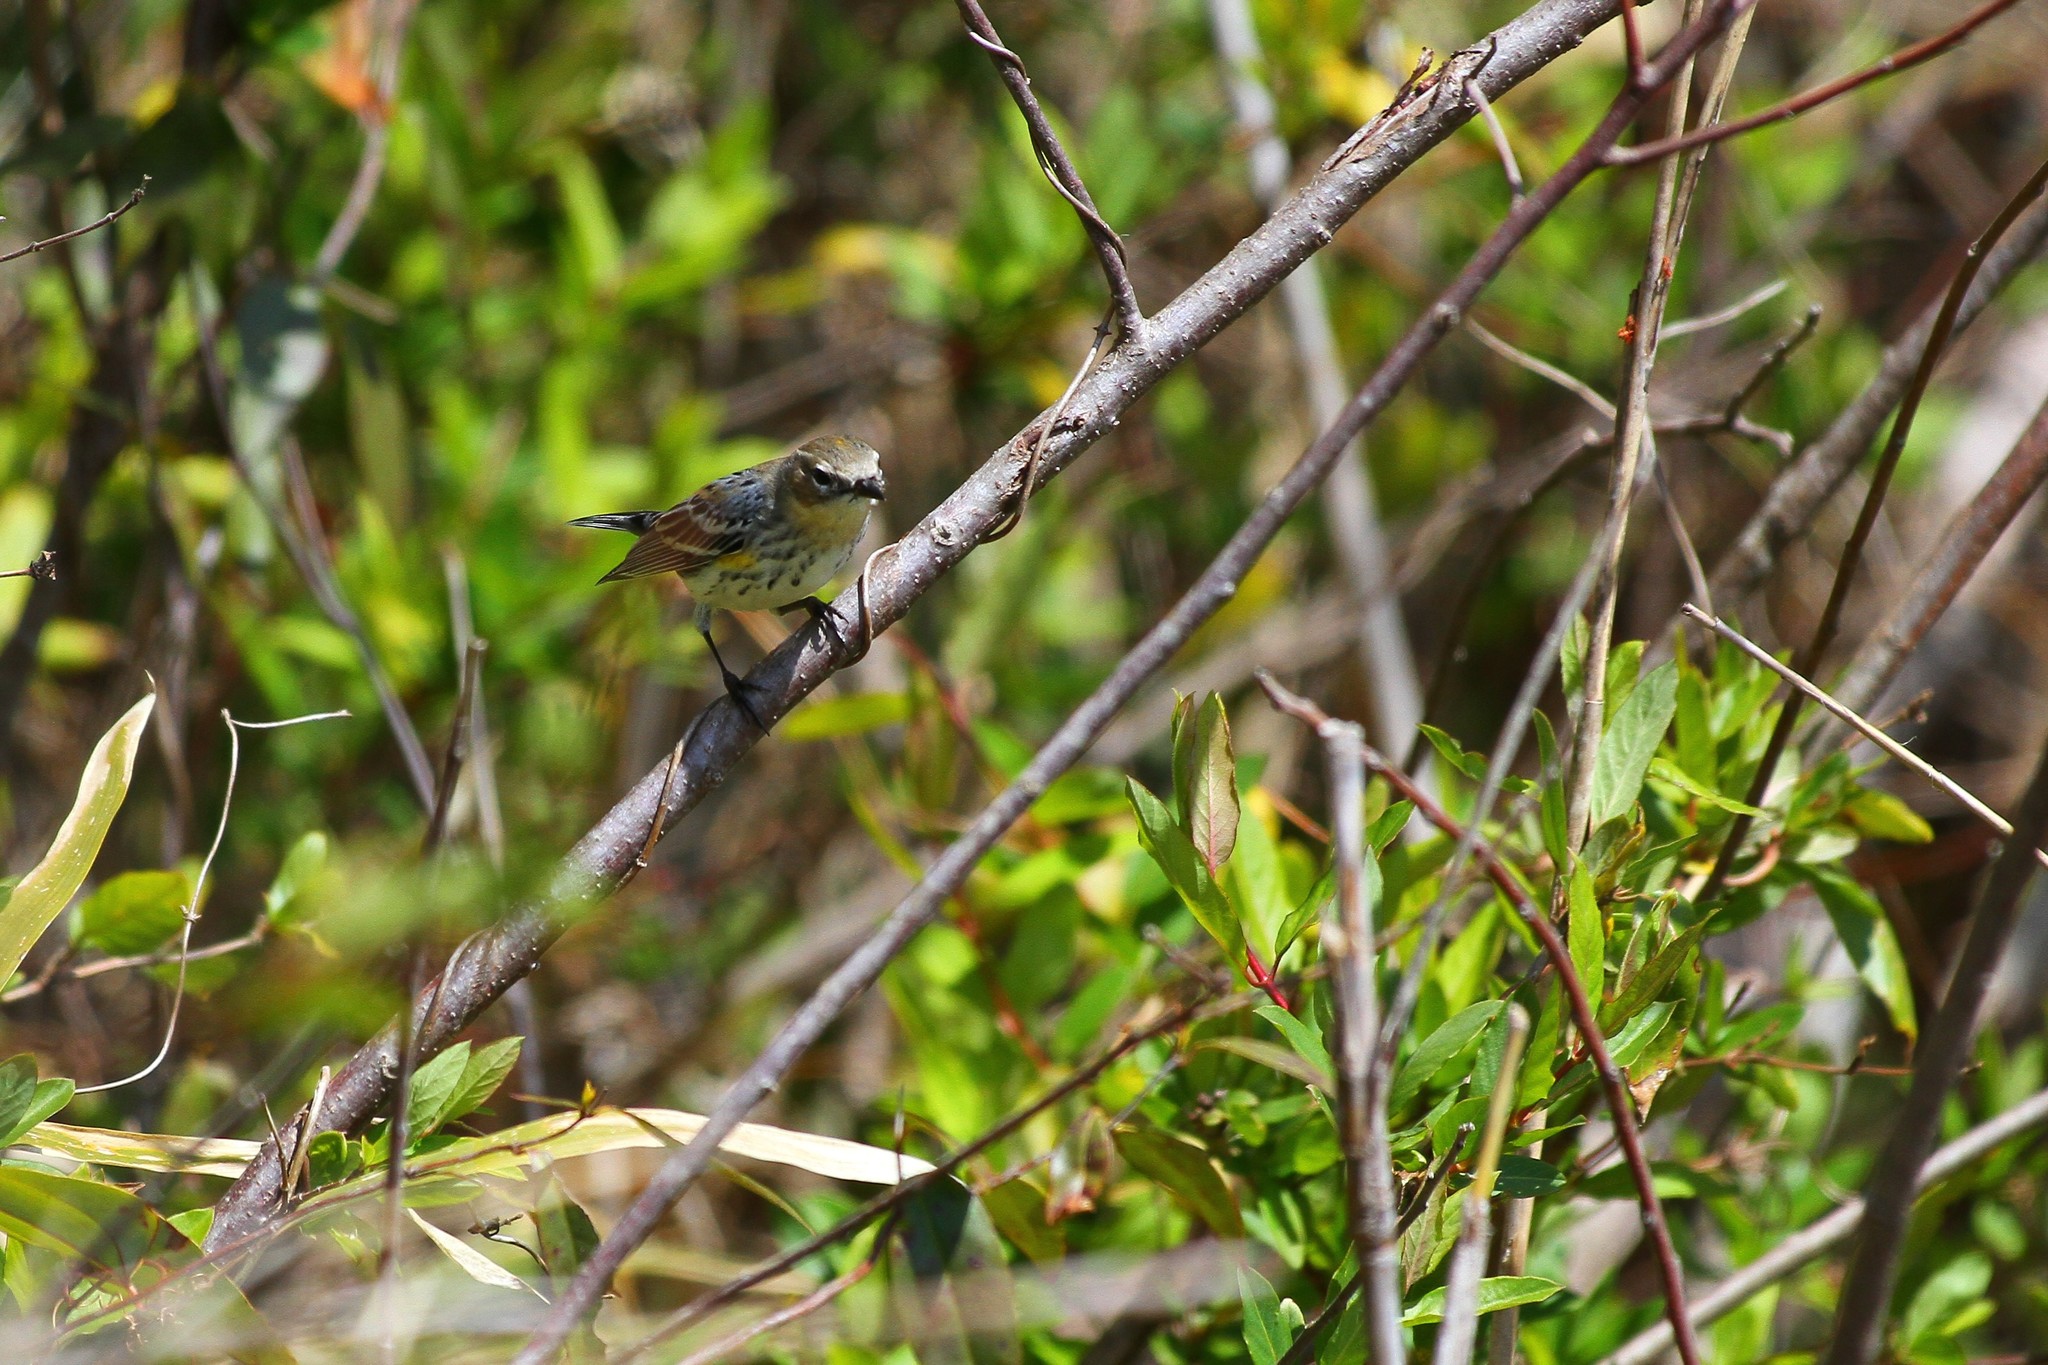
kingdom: Animalia
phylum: Chordata
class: Aves
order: Passeriformes
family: Parulidae
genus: Setophaga
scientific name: Setophaga coronata
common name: Myrtle warbler
